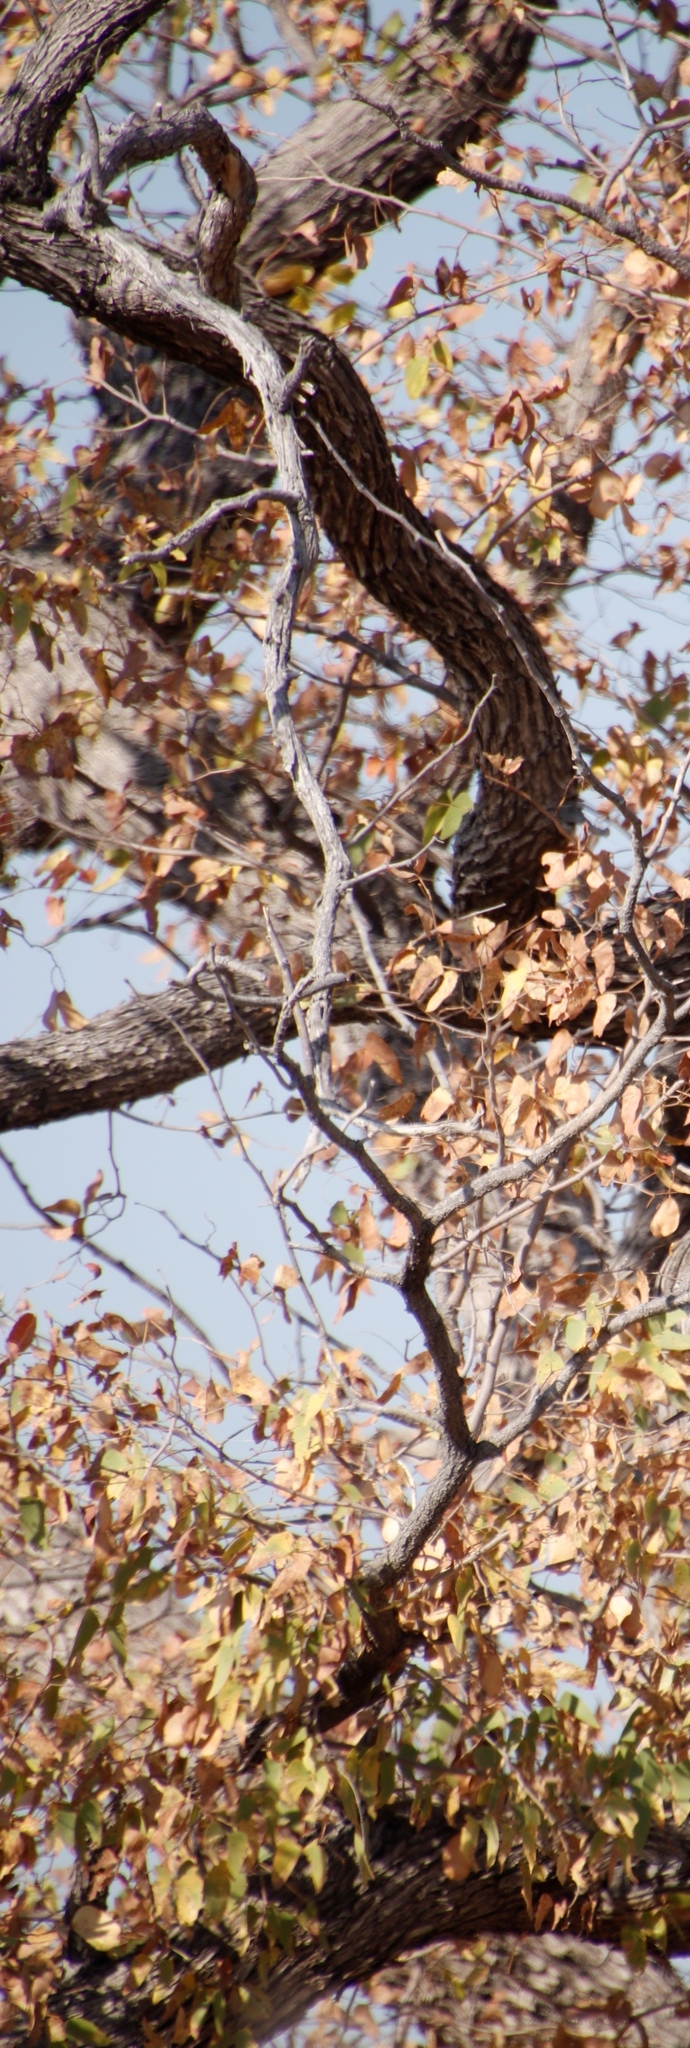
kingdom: Plantae
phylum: Tracheophyta
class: Magnoliopsida
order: Fabales
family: Fabaceae
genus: Colophospermum
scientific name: Colophospermum mopane
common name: Mopane
